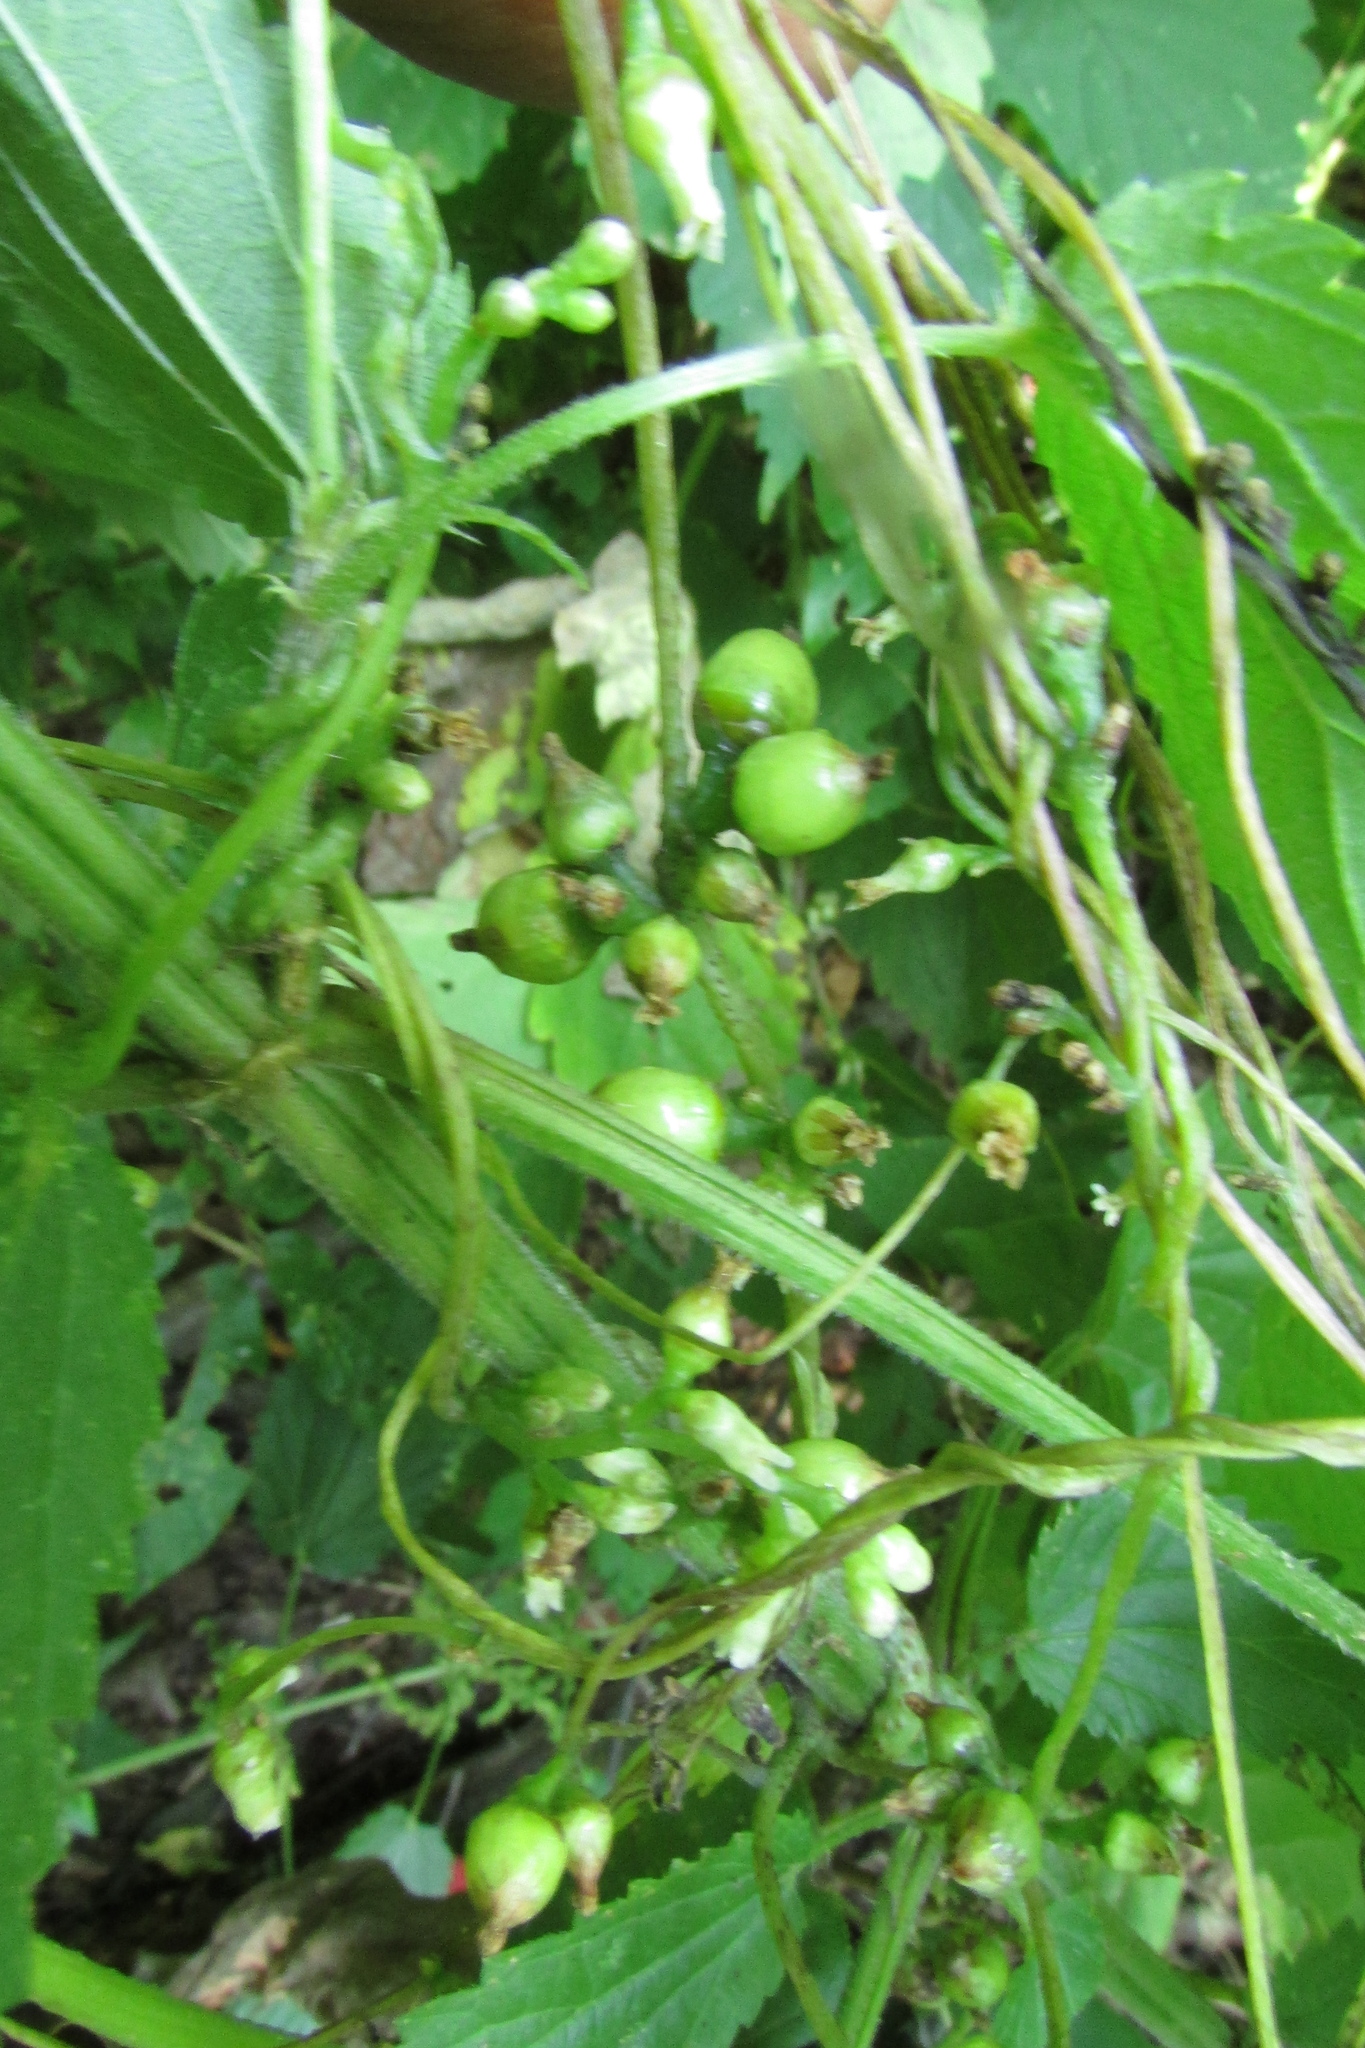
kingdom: Plantae
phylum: Tracheophyta
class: Magnoliopsida
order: Solanales
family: Convolvulaceae
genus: Cuscuta
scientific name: Cuscuta lupuliformis
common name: Hop dodder
